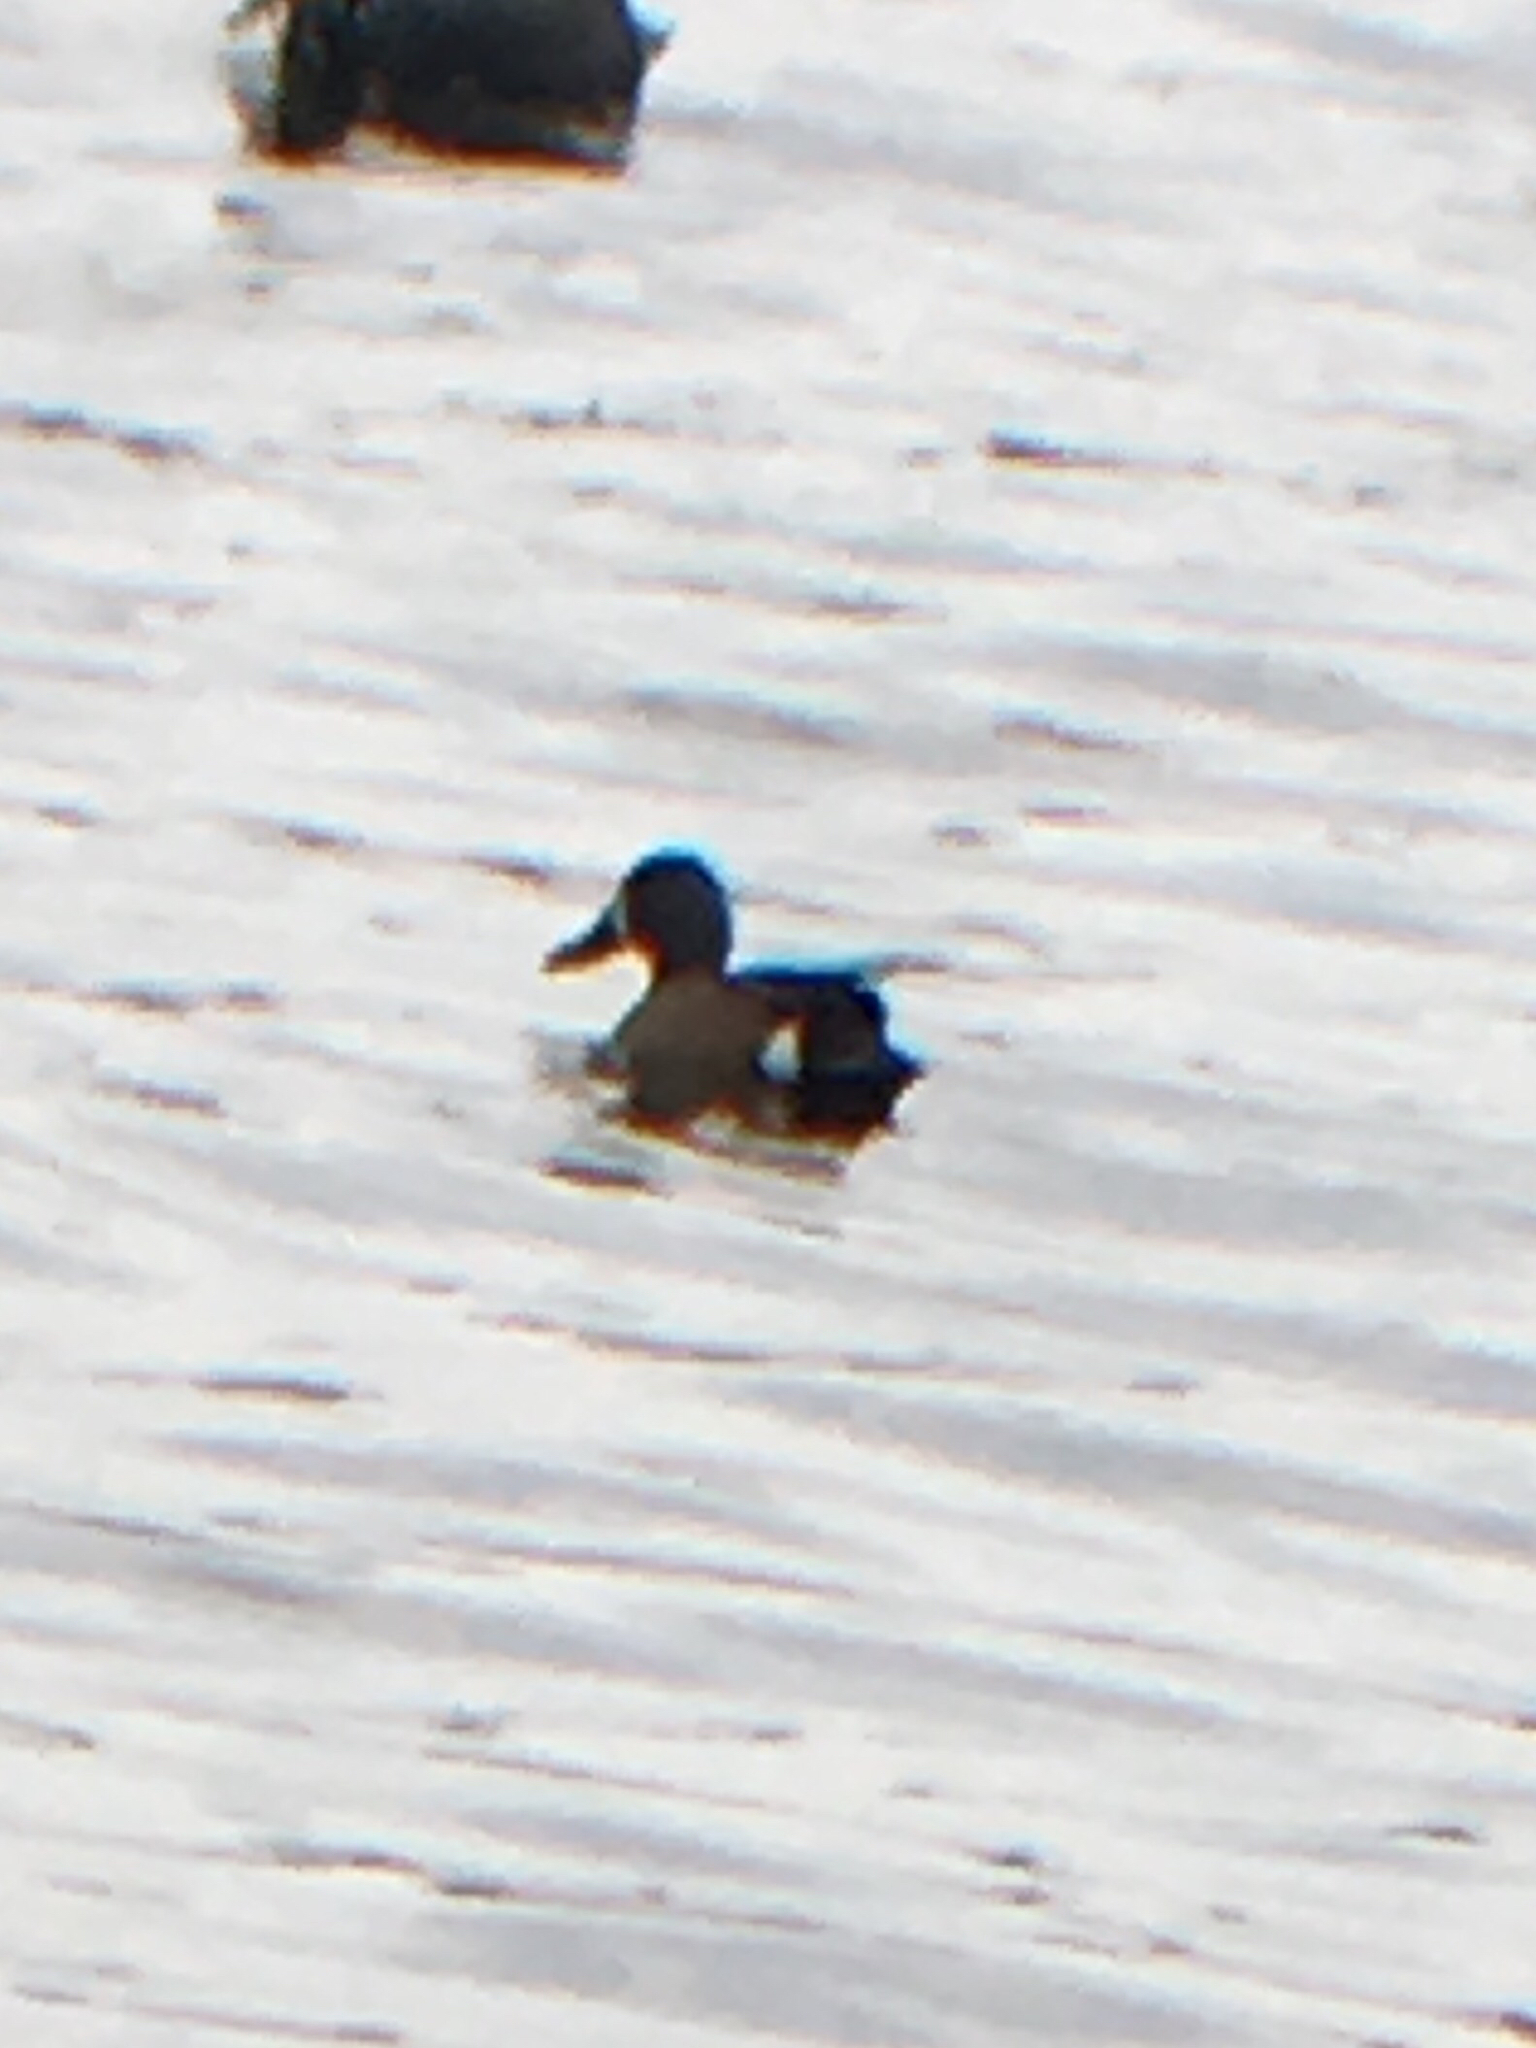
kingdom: Animalia
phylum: Chordata
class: Aves
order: Anseriformes
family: Anatidae
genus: Spatula
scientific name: Spatula discors
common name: Blue-winged teal
